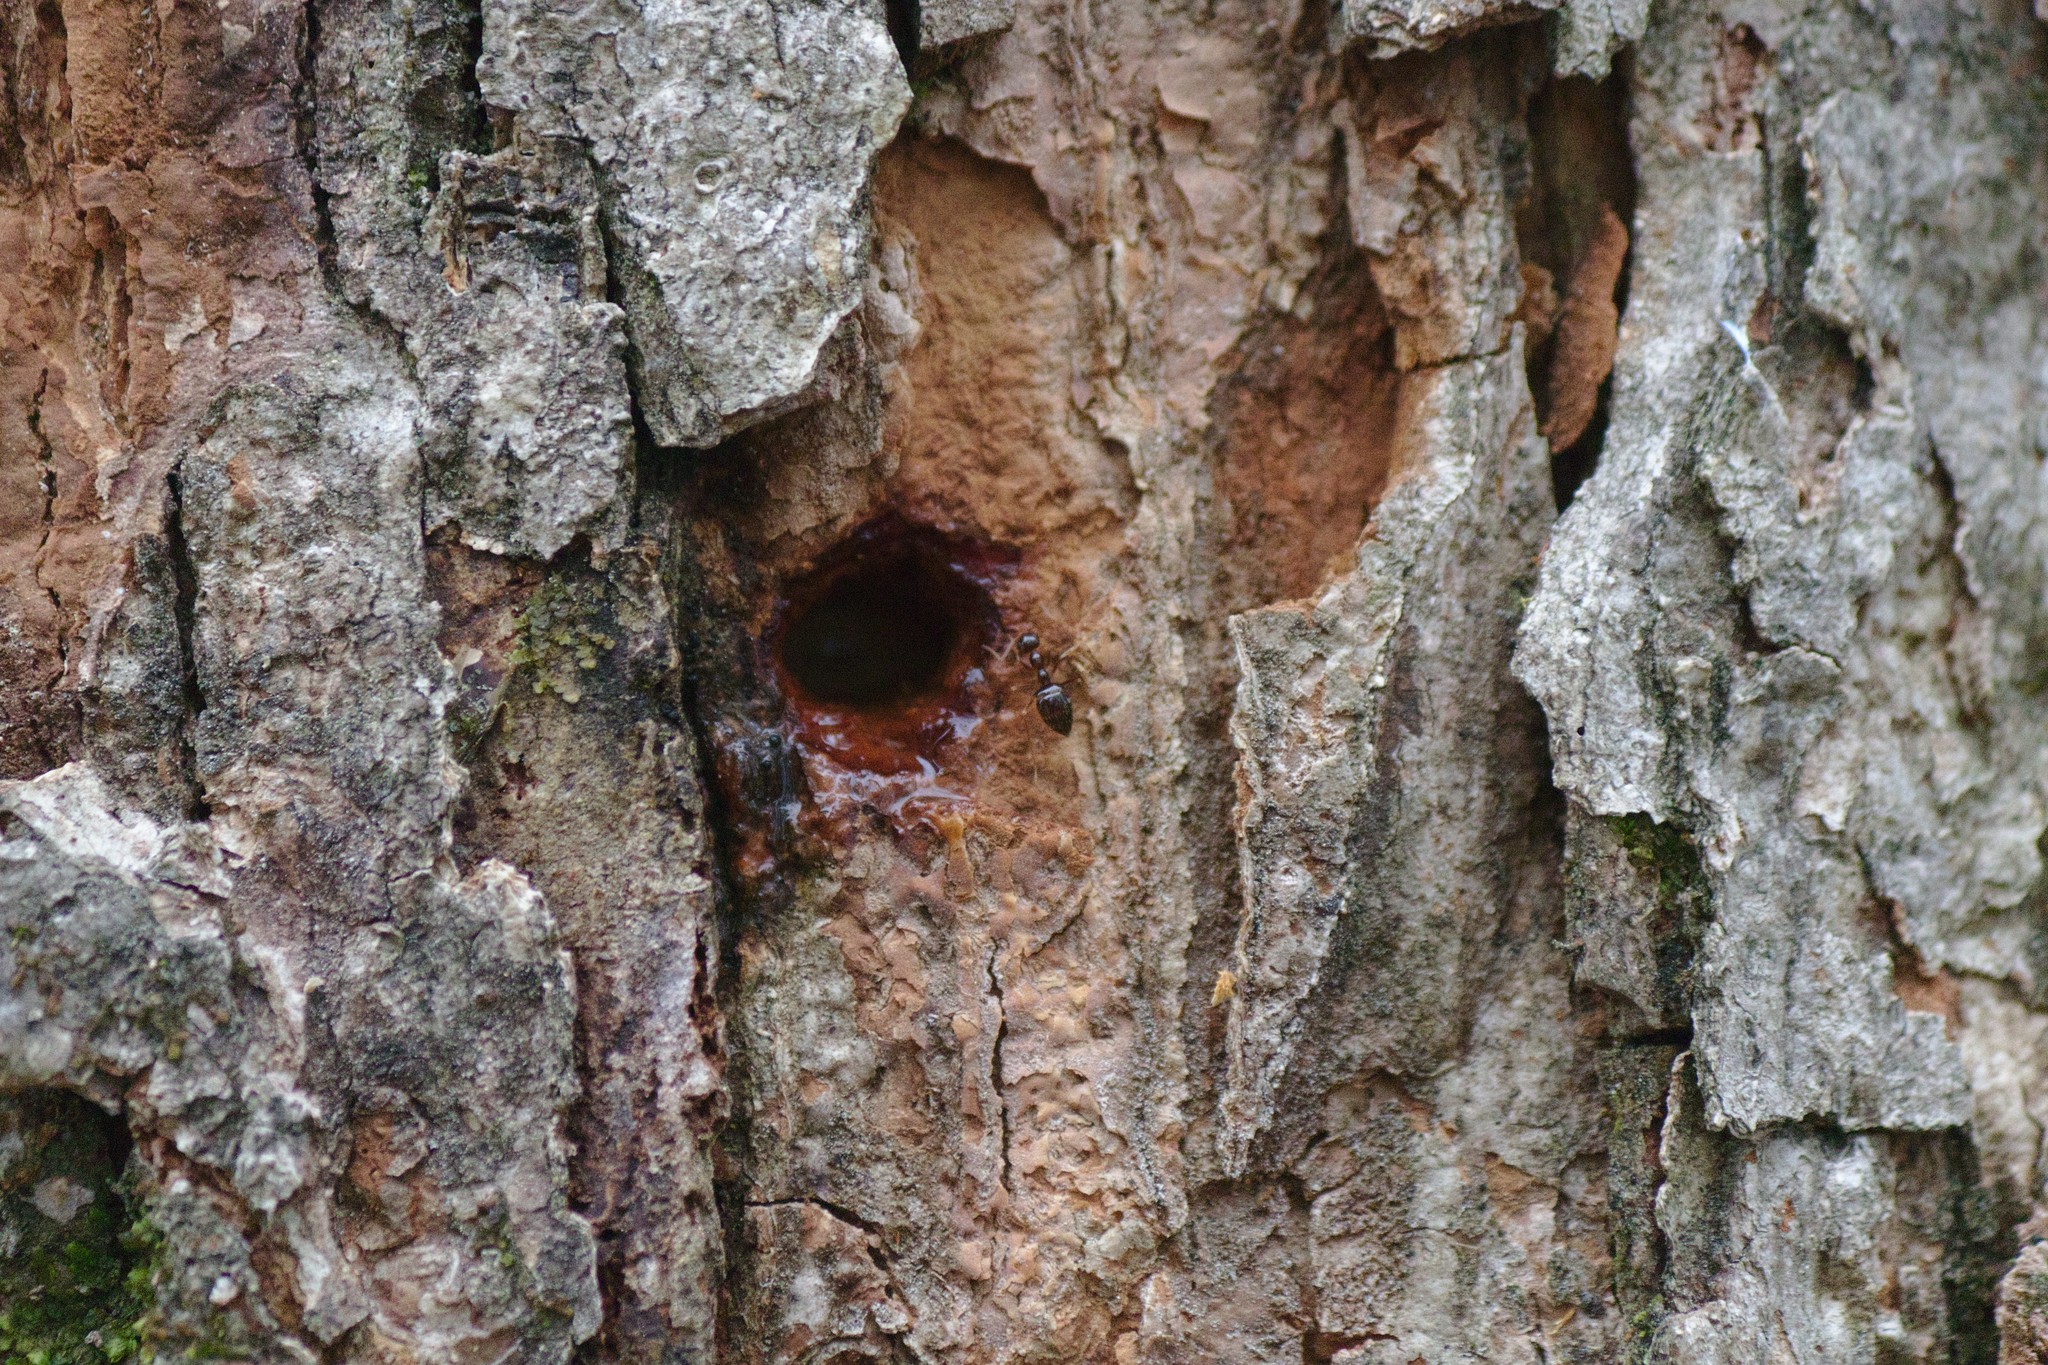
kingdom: Animalia
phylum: Arthropoda
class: Insecta
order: Hymenoptera
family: Formicidae
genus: Prenolepis
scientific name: Prenolepis imparis
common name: Small honey ant
